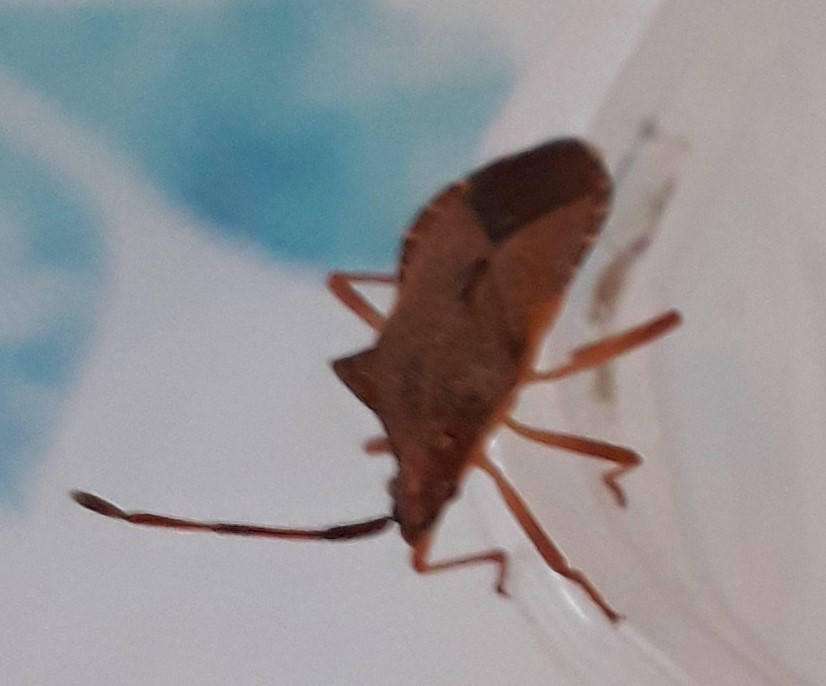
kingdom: Animalia
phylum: Arthropoda
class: Insecta
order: Hemiptera
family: Coreidae
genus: Gonocerus
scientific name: Gonocerus acuteangulatus
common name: Box bug
